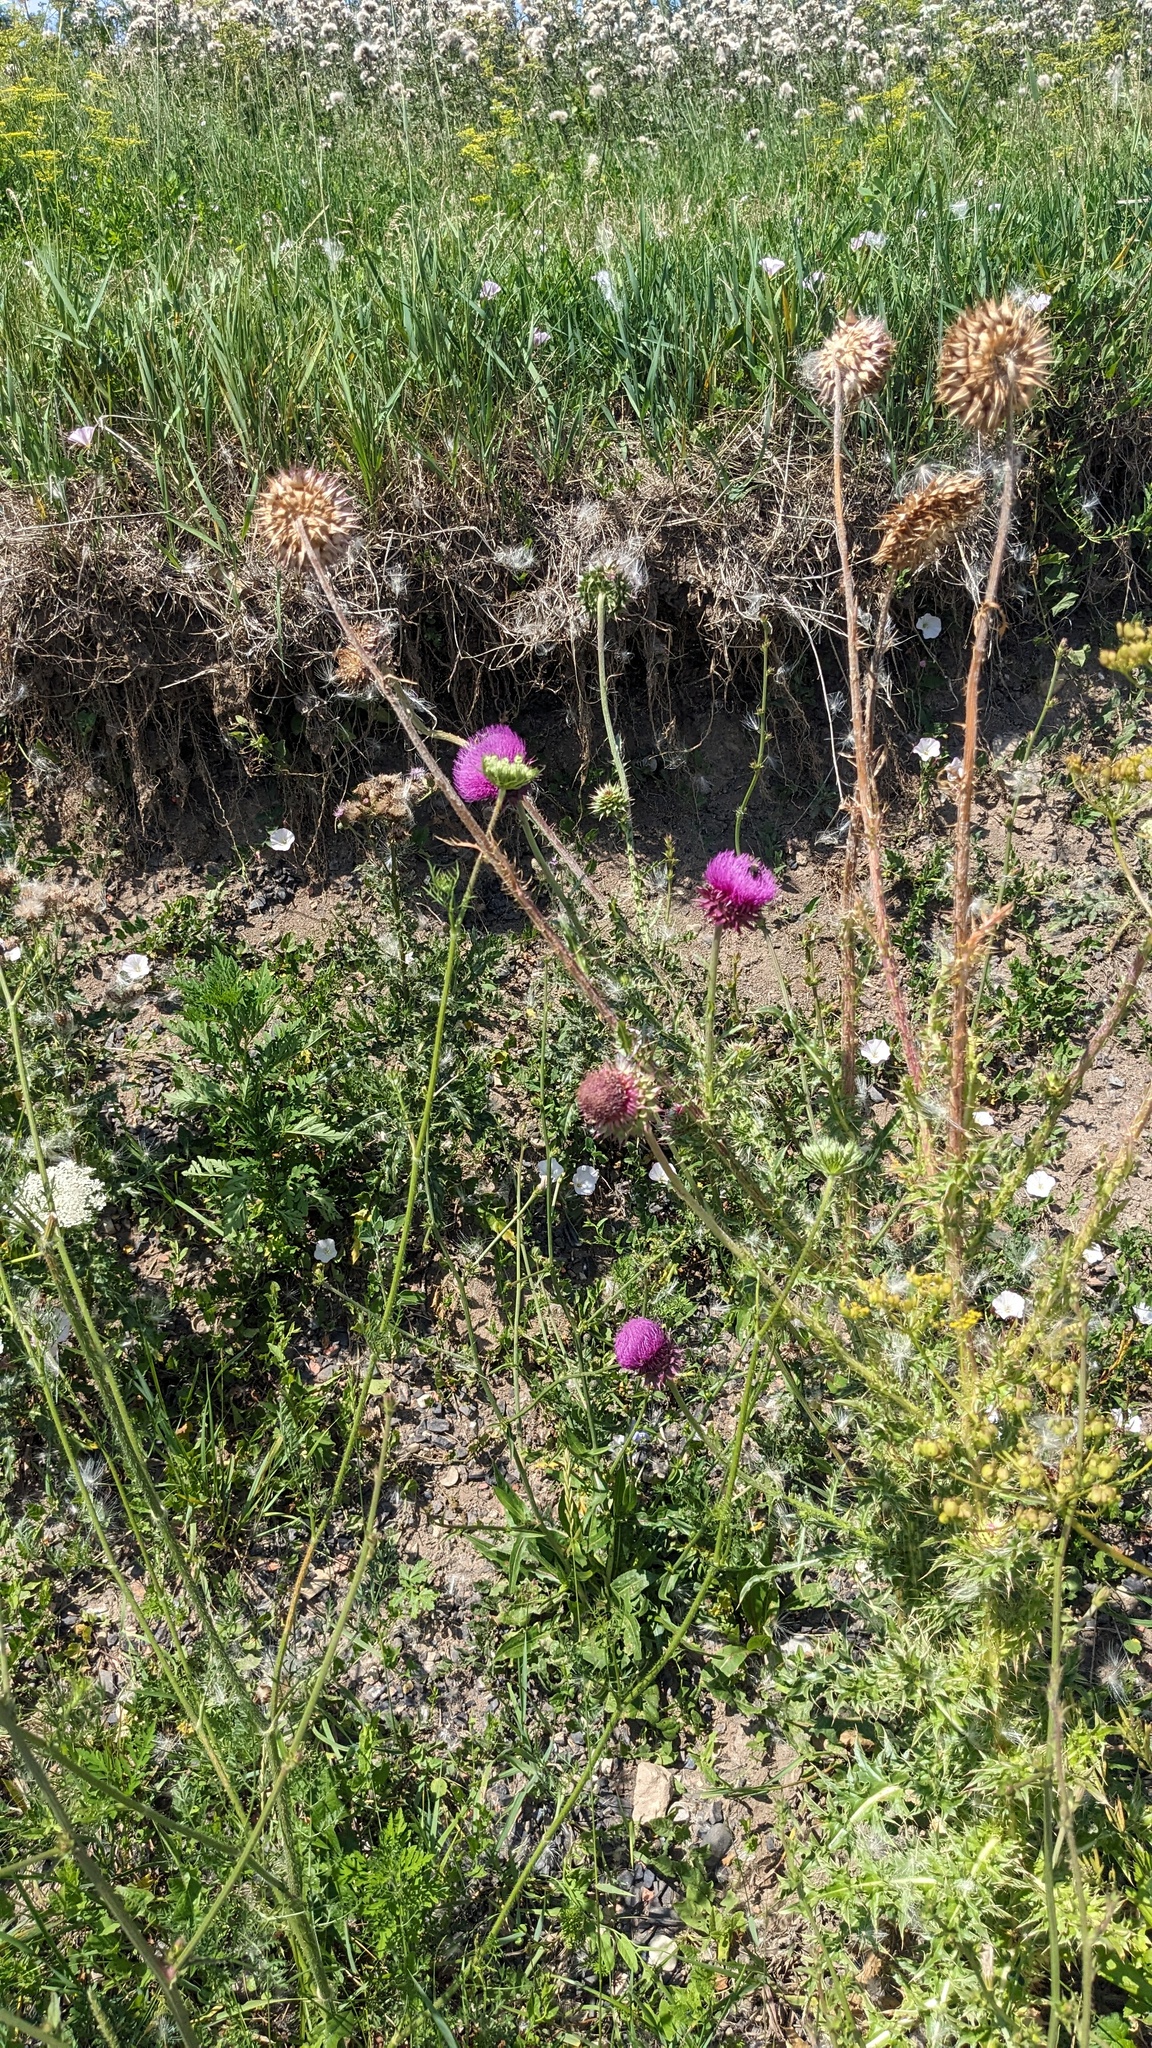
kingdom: Plantae
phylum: Tracheophyta
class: Magnoliopsida
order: Asterales
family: Asteraceae
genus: Carduus
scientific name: Carduus nutans
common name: Musk thistle
